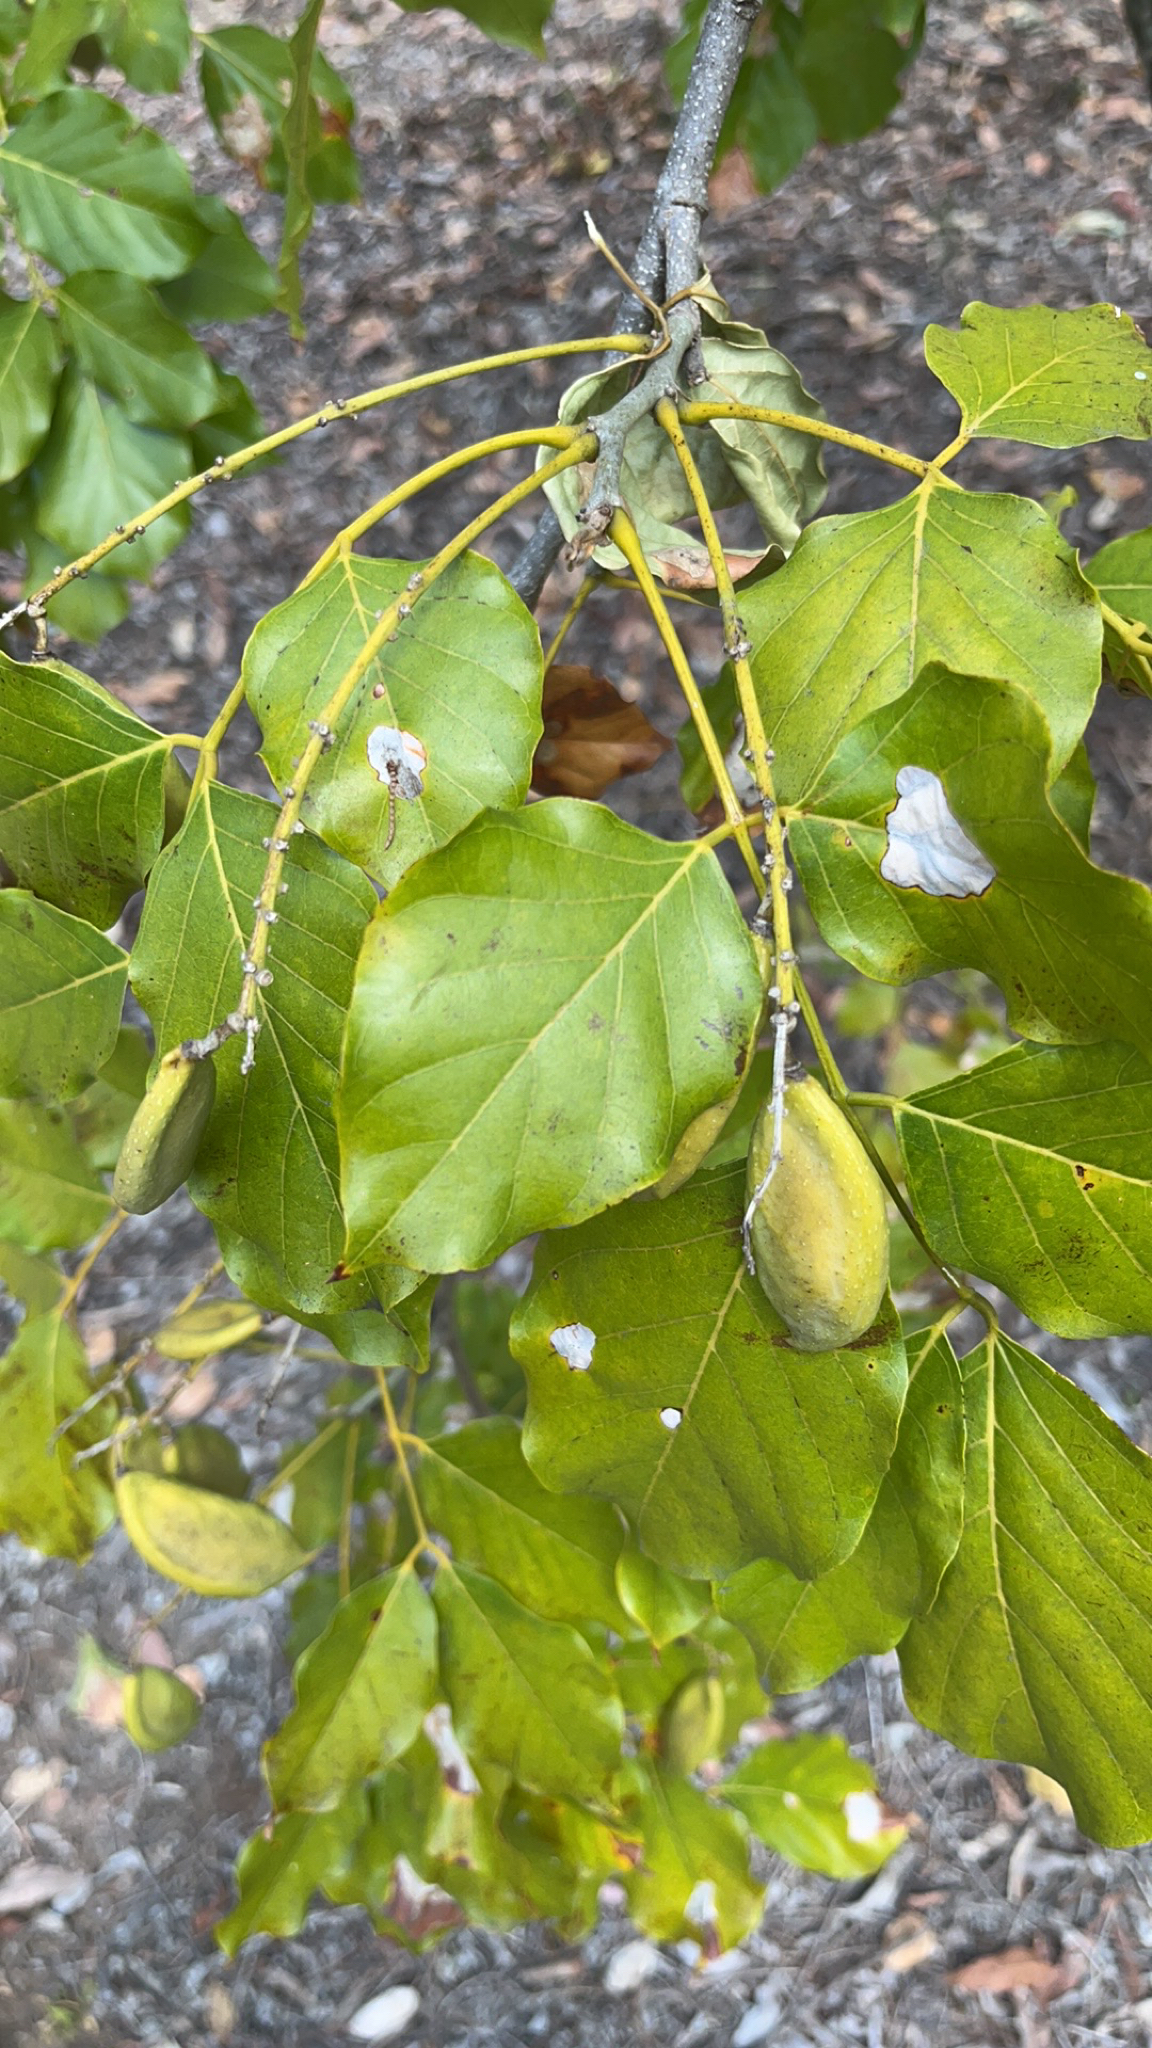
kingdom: Plantae
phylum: Tracheophyta
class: Magnoliopsida
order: Fabales
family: Fabaceae
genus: Pongamia
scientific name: Pongamia pinnata
